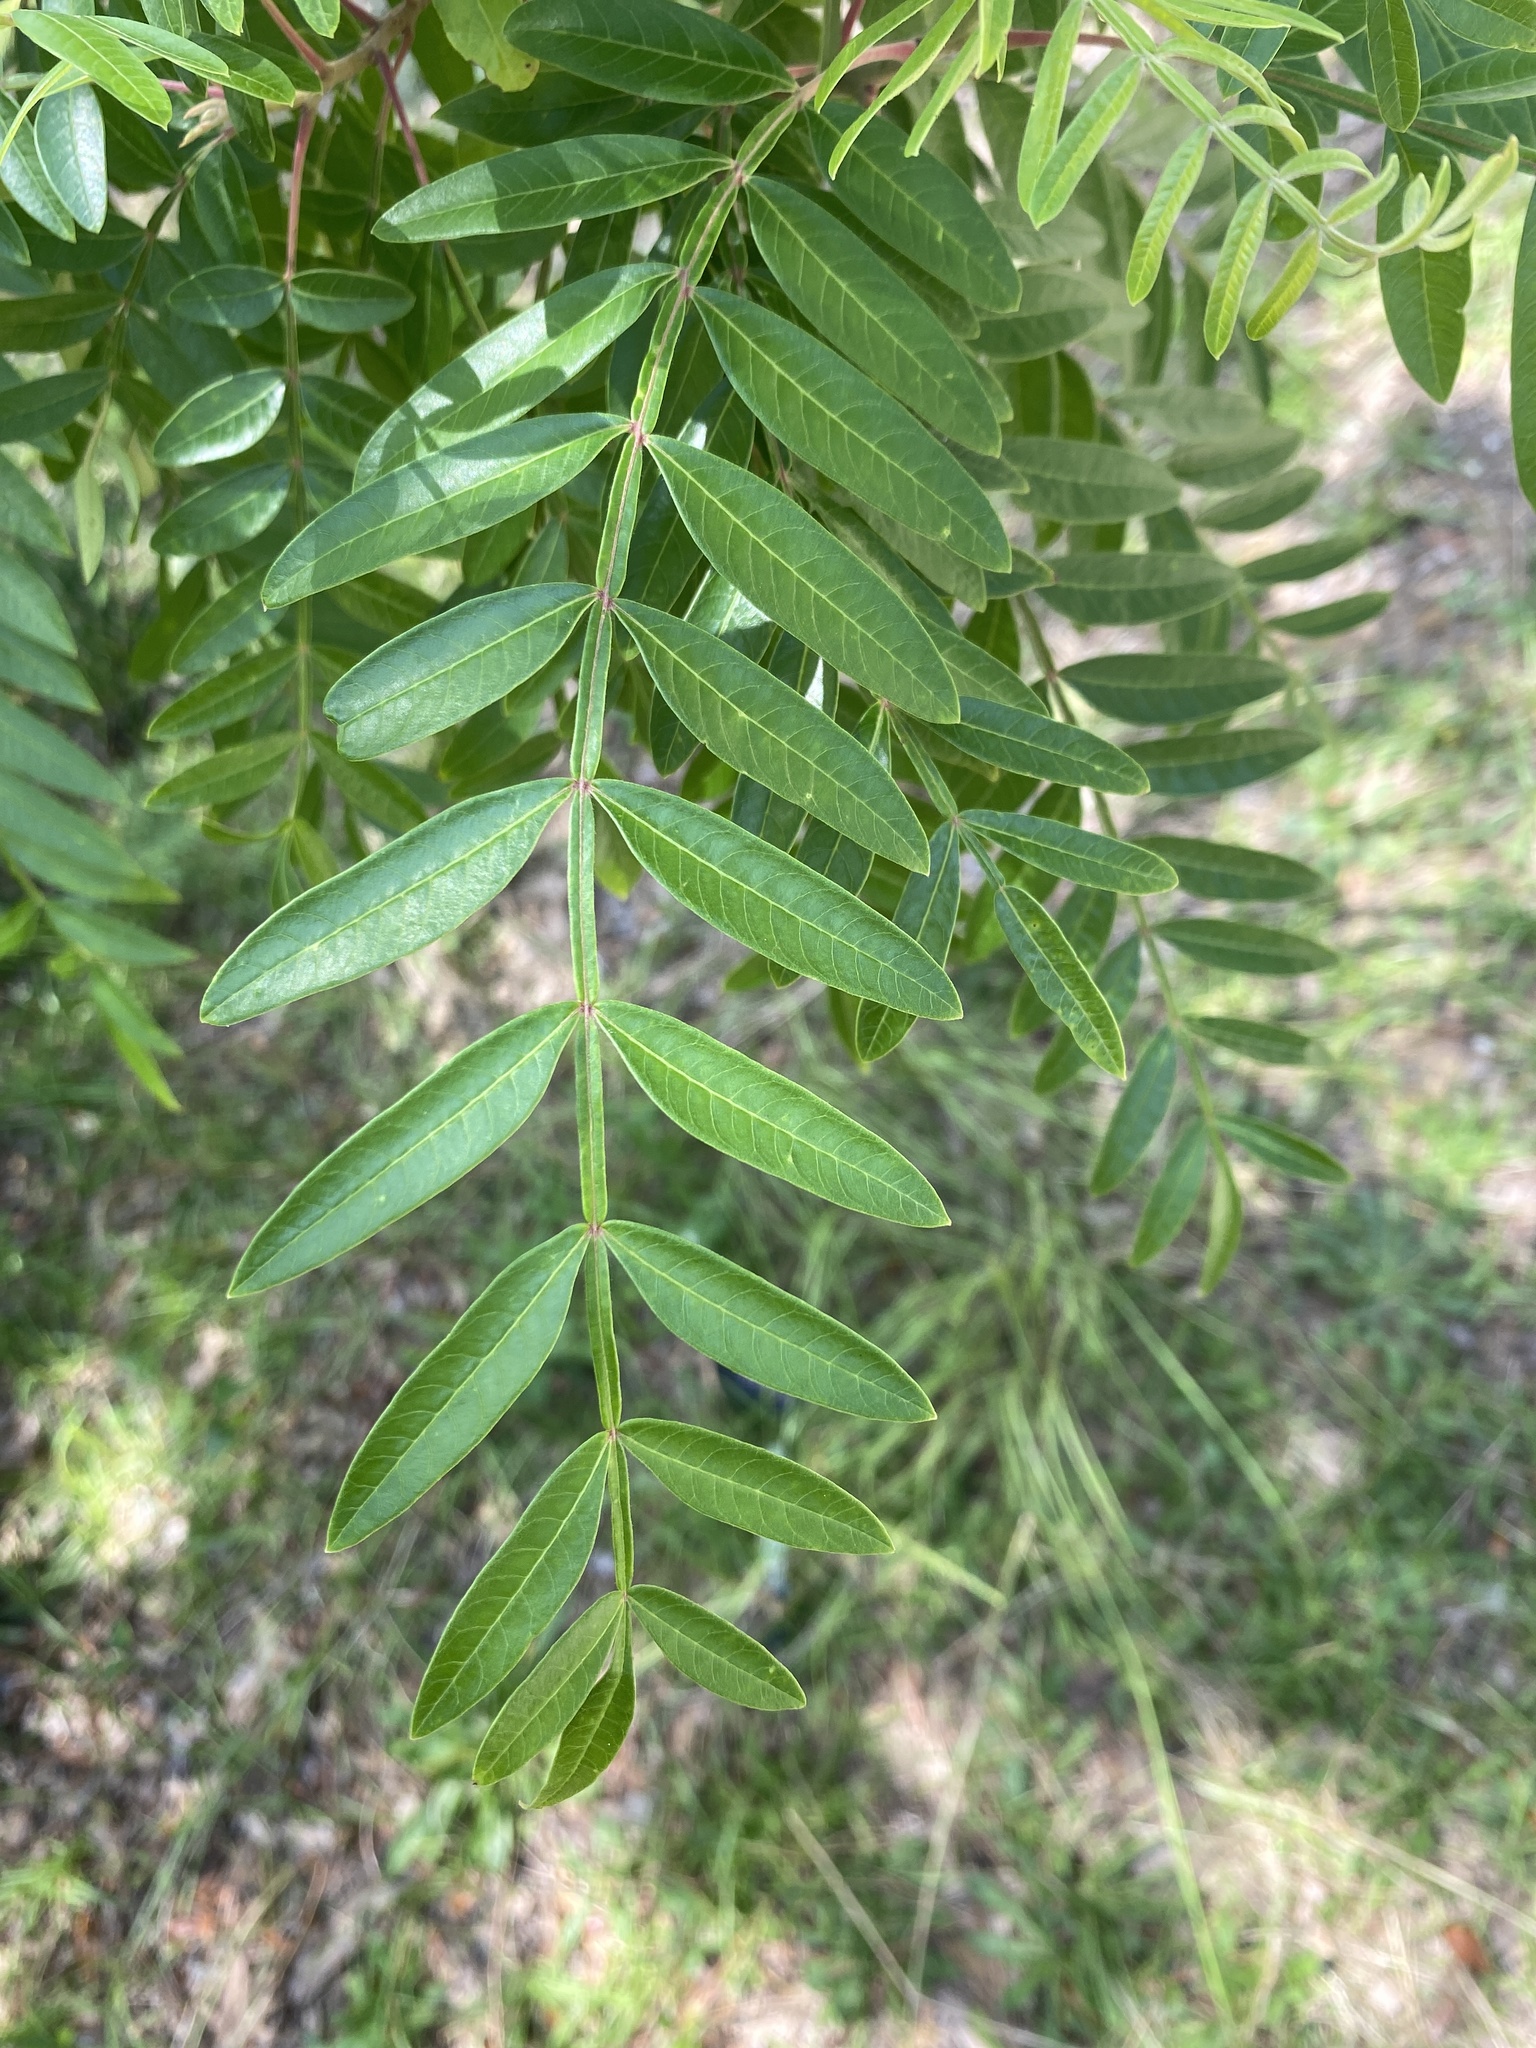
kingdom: Plantae
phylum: Tracheophyta
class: Magnoliopsida
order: Sapindales
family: Anacardiaceae
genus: Rhus
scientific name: Rhus copallina
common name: Shining sumac
